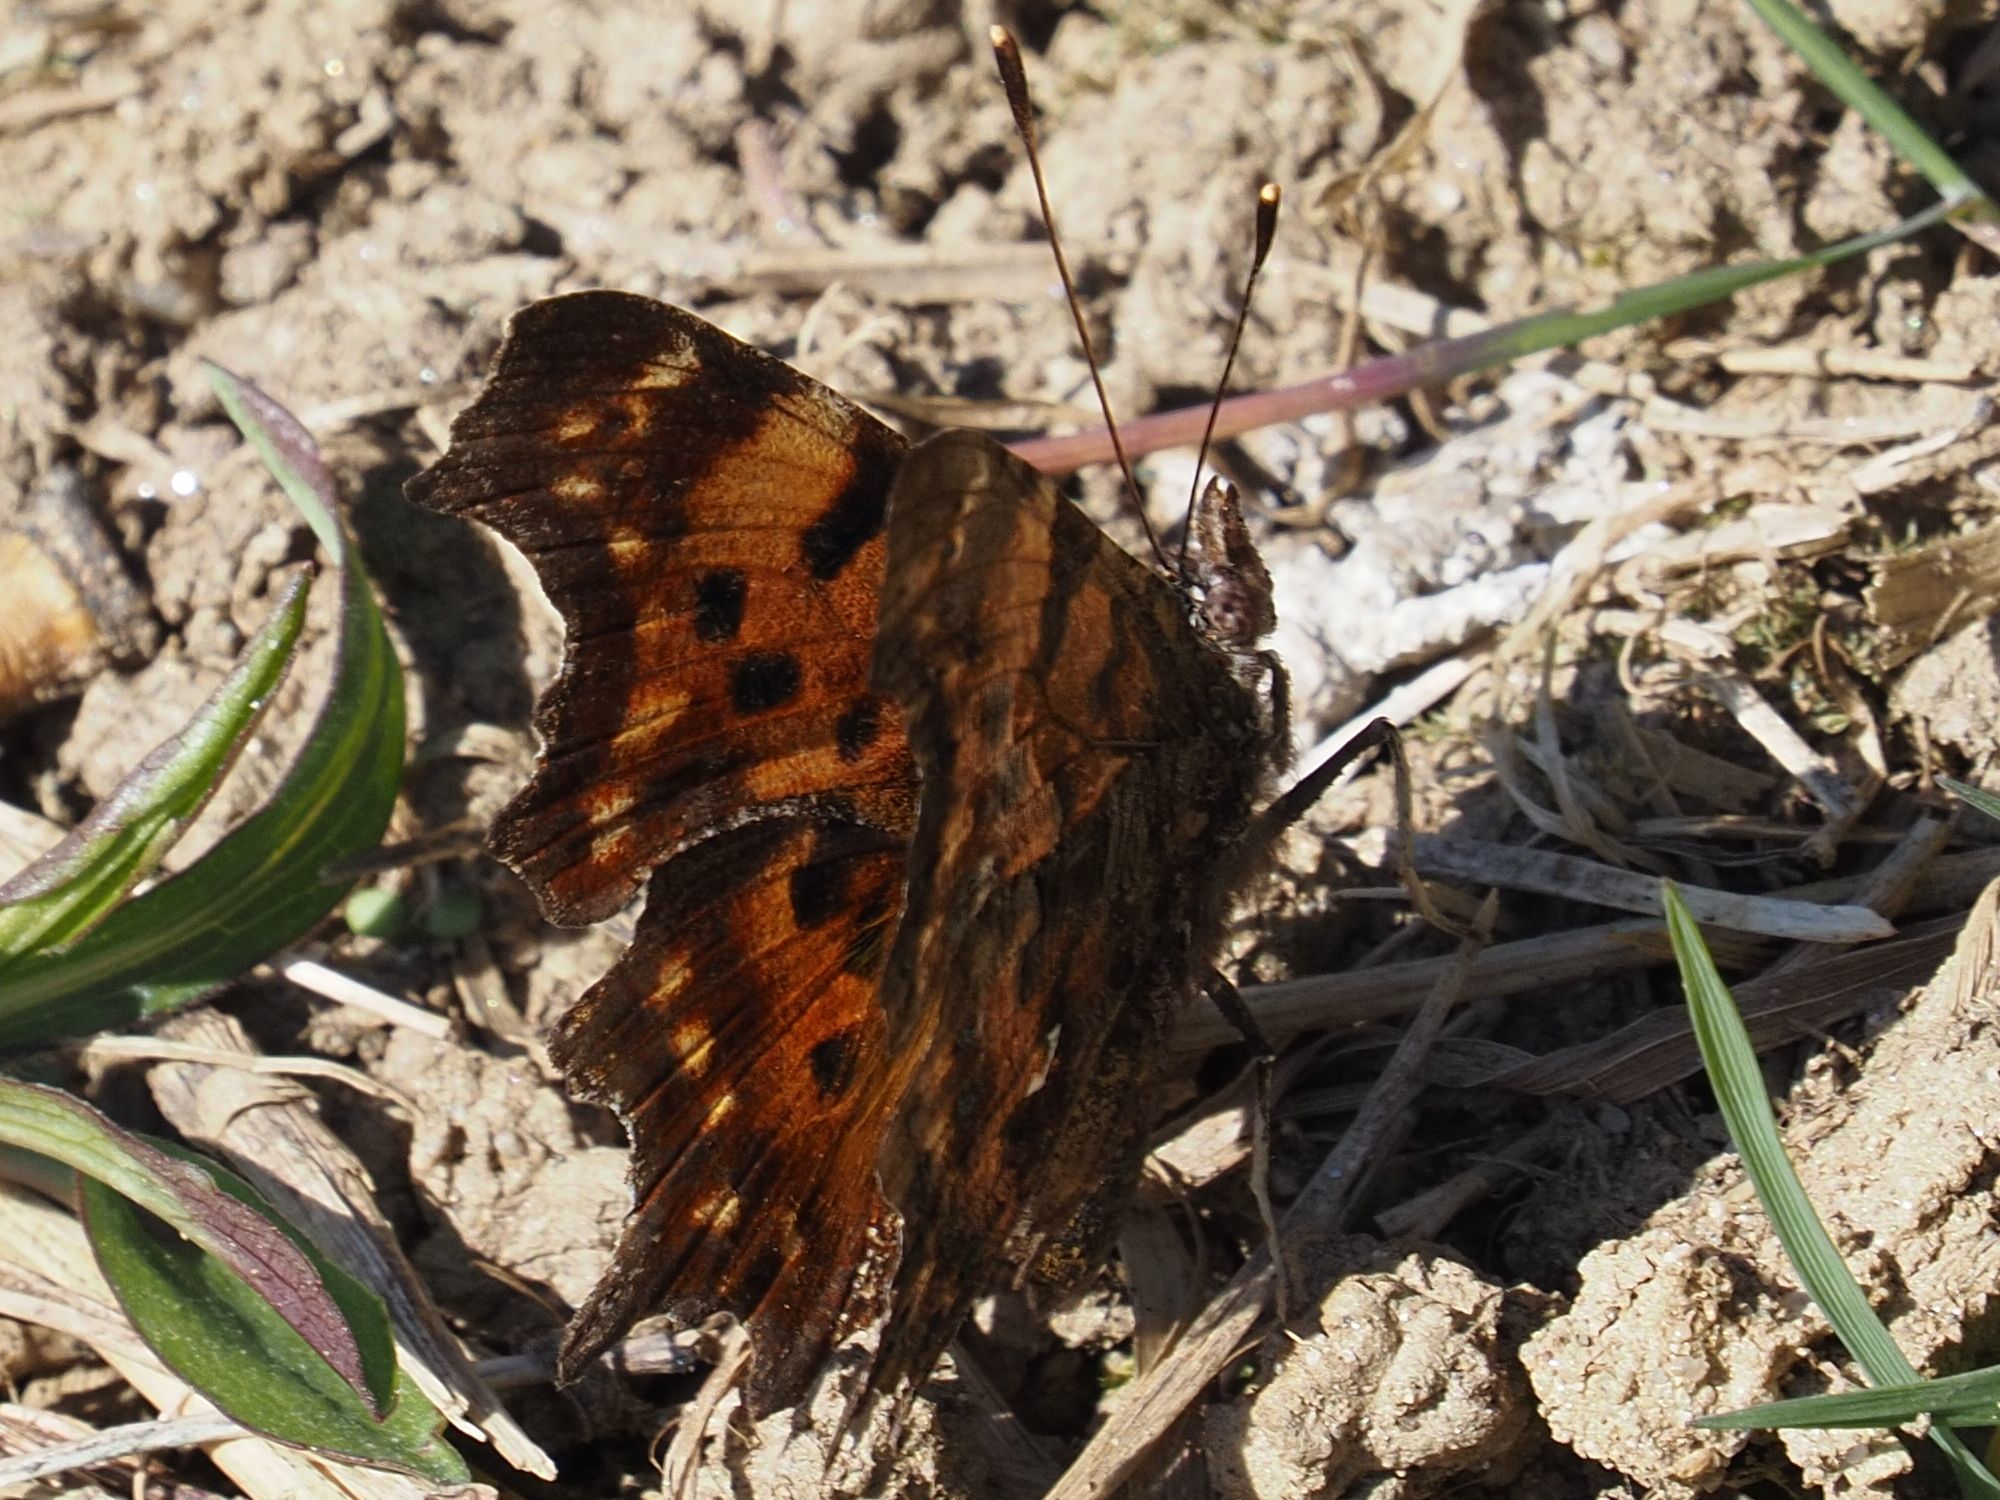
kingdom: Animalia
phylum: Arthropoda
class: Insecta
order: Lepidoptera
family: Nymphalidae
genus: Polygonia
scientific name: Polygonia c-album
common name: Comma
